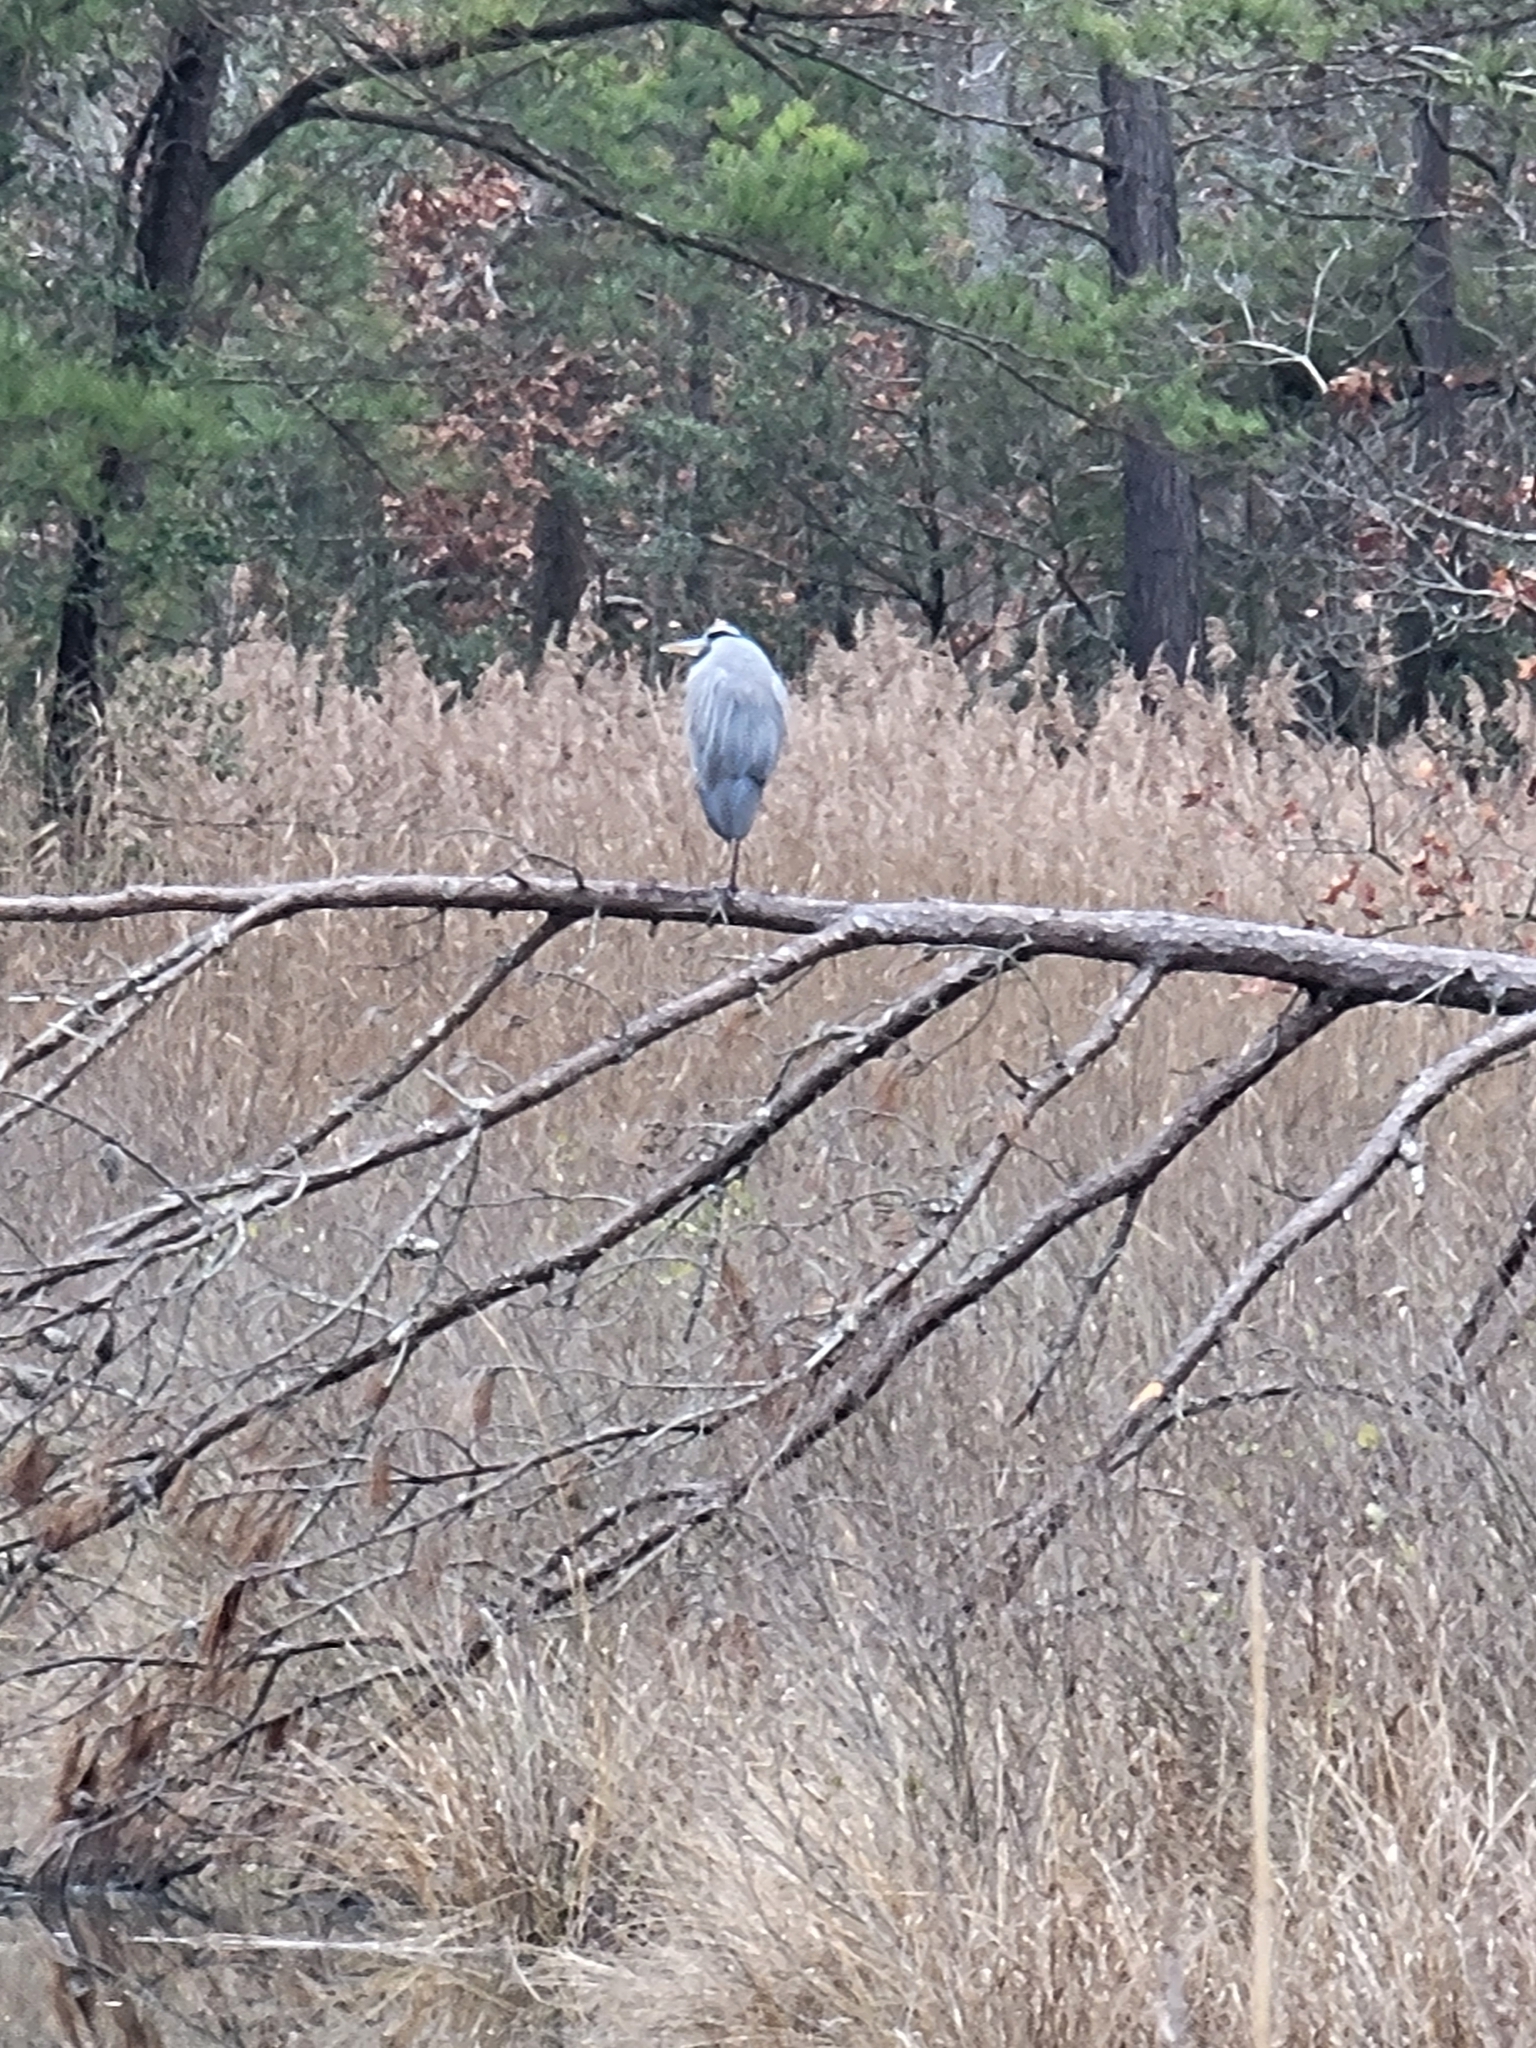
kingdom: Animalia
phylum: Chordata
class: Aves
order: Pelecaniformes
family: Ardeidae
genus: Ardea
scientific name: Ardea herodias
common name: Great blue heron
